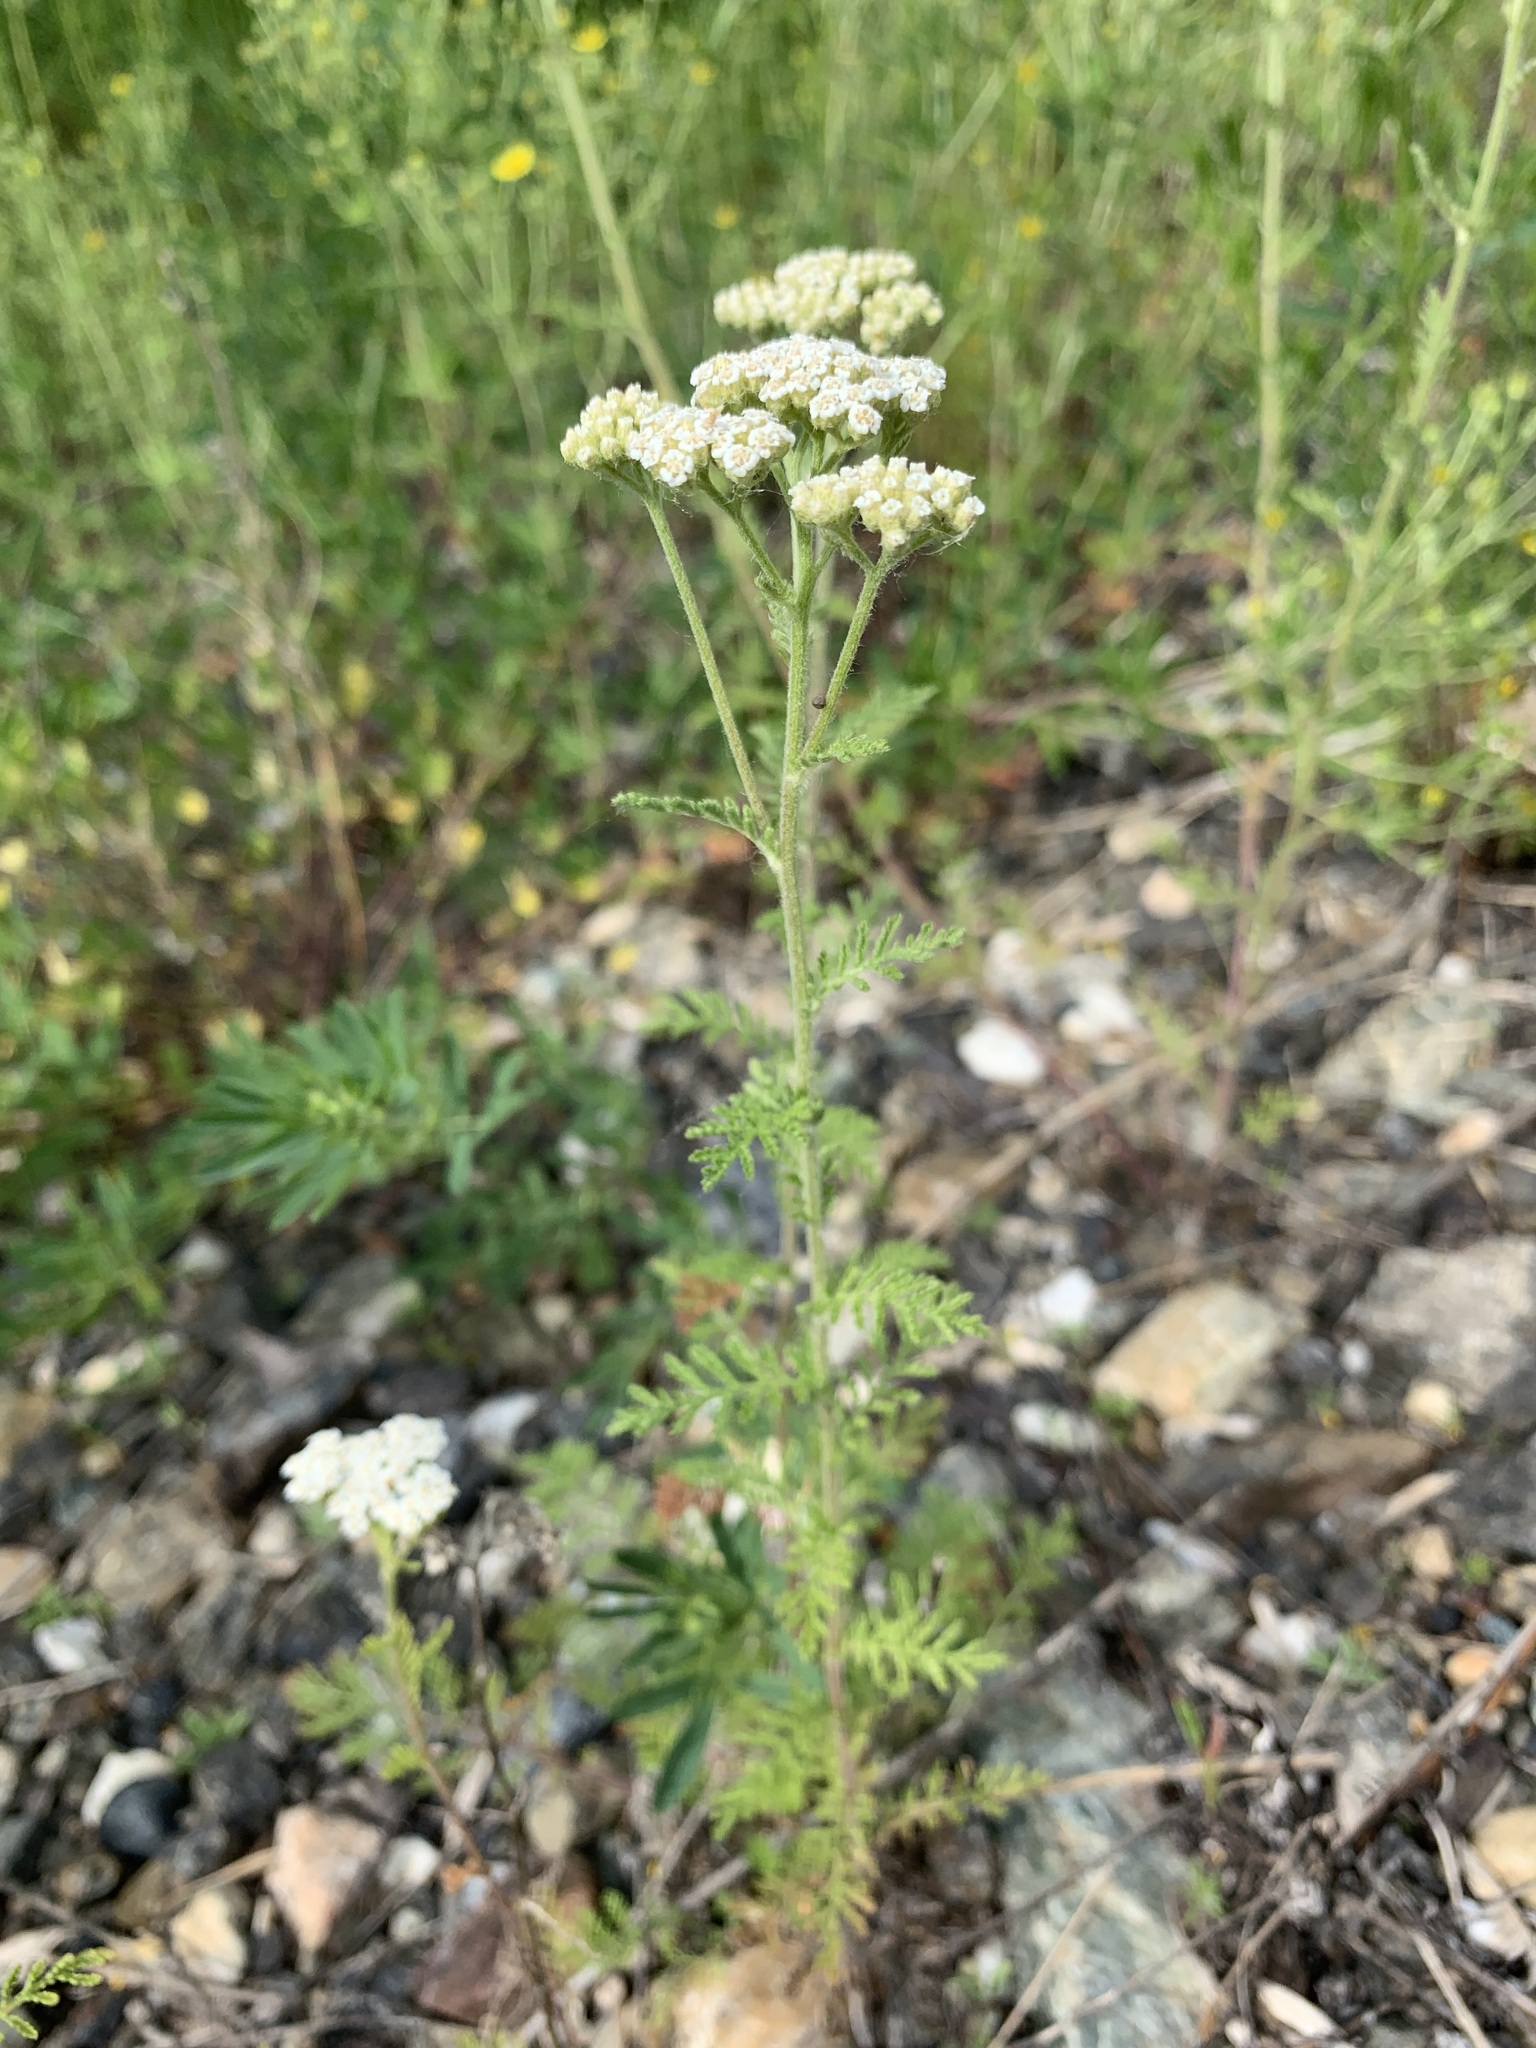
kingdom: Plantae
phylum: Tracheophyta
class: Magnoliopsida
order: Asterales
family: Asteraceae
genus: Achillea
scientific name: Achillea nobilis
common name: Noble yarrow
